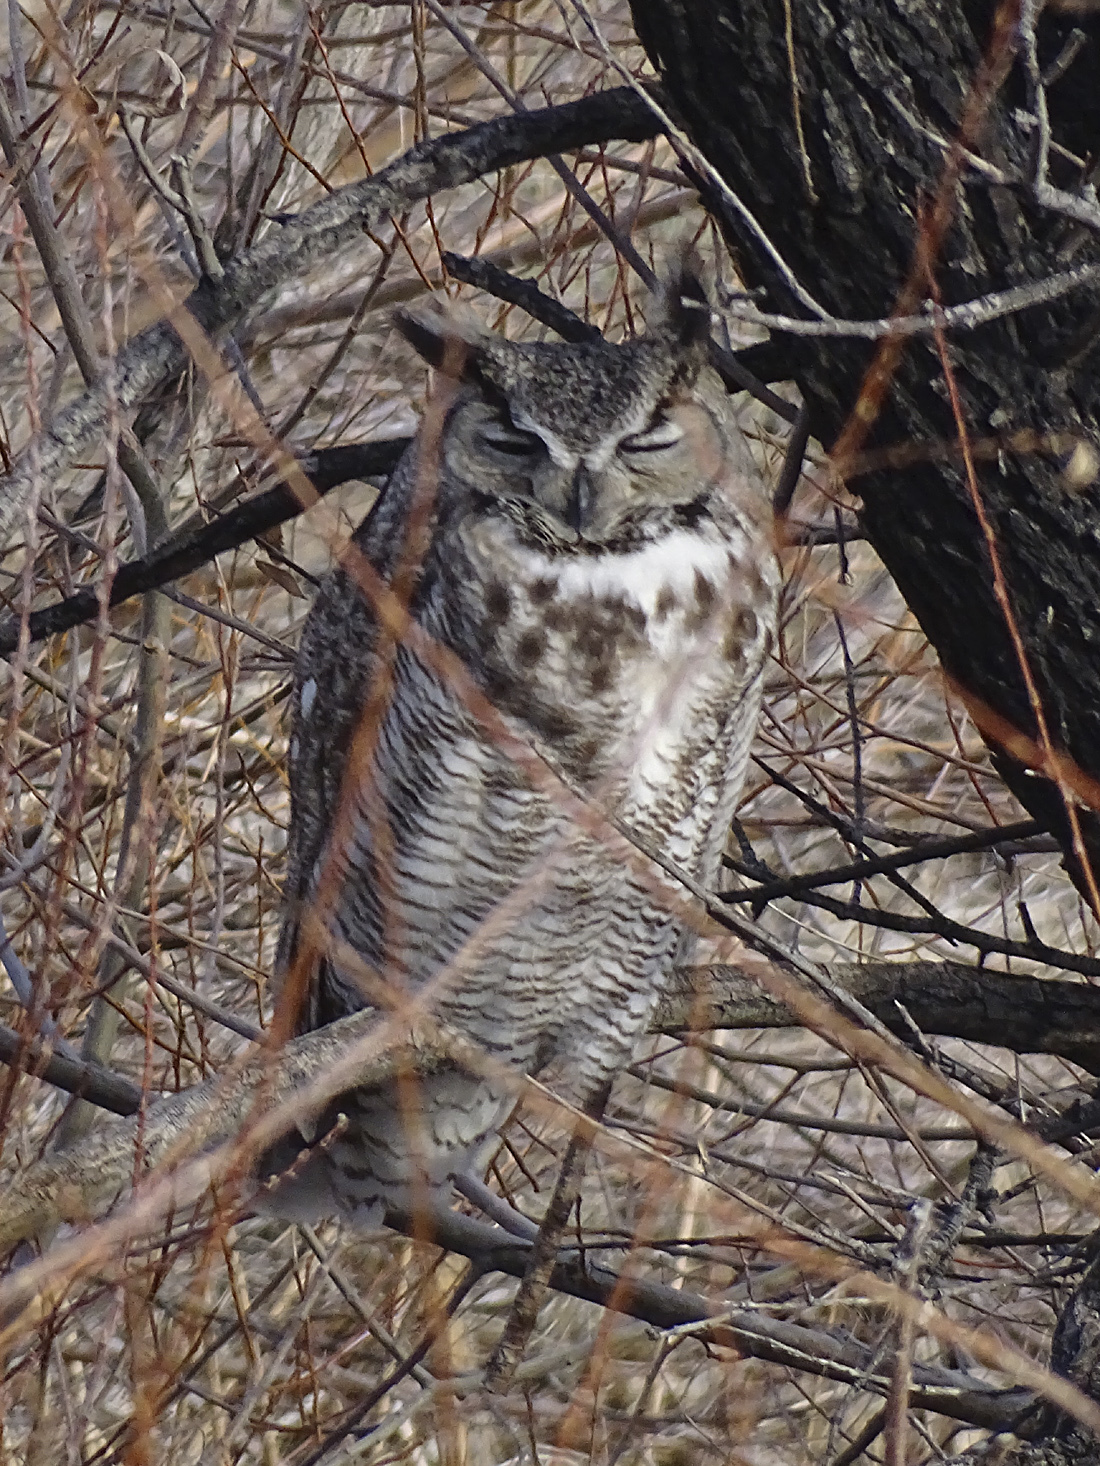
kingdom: Animalia
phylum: Chordata
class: Aves
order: Strigiformes
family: Strigidae
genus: Bubo
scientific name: Bubo virginianus
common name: Great horned owl
